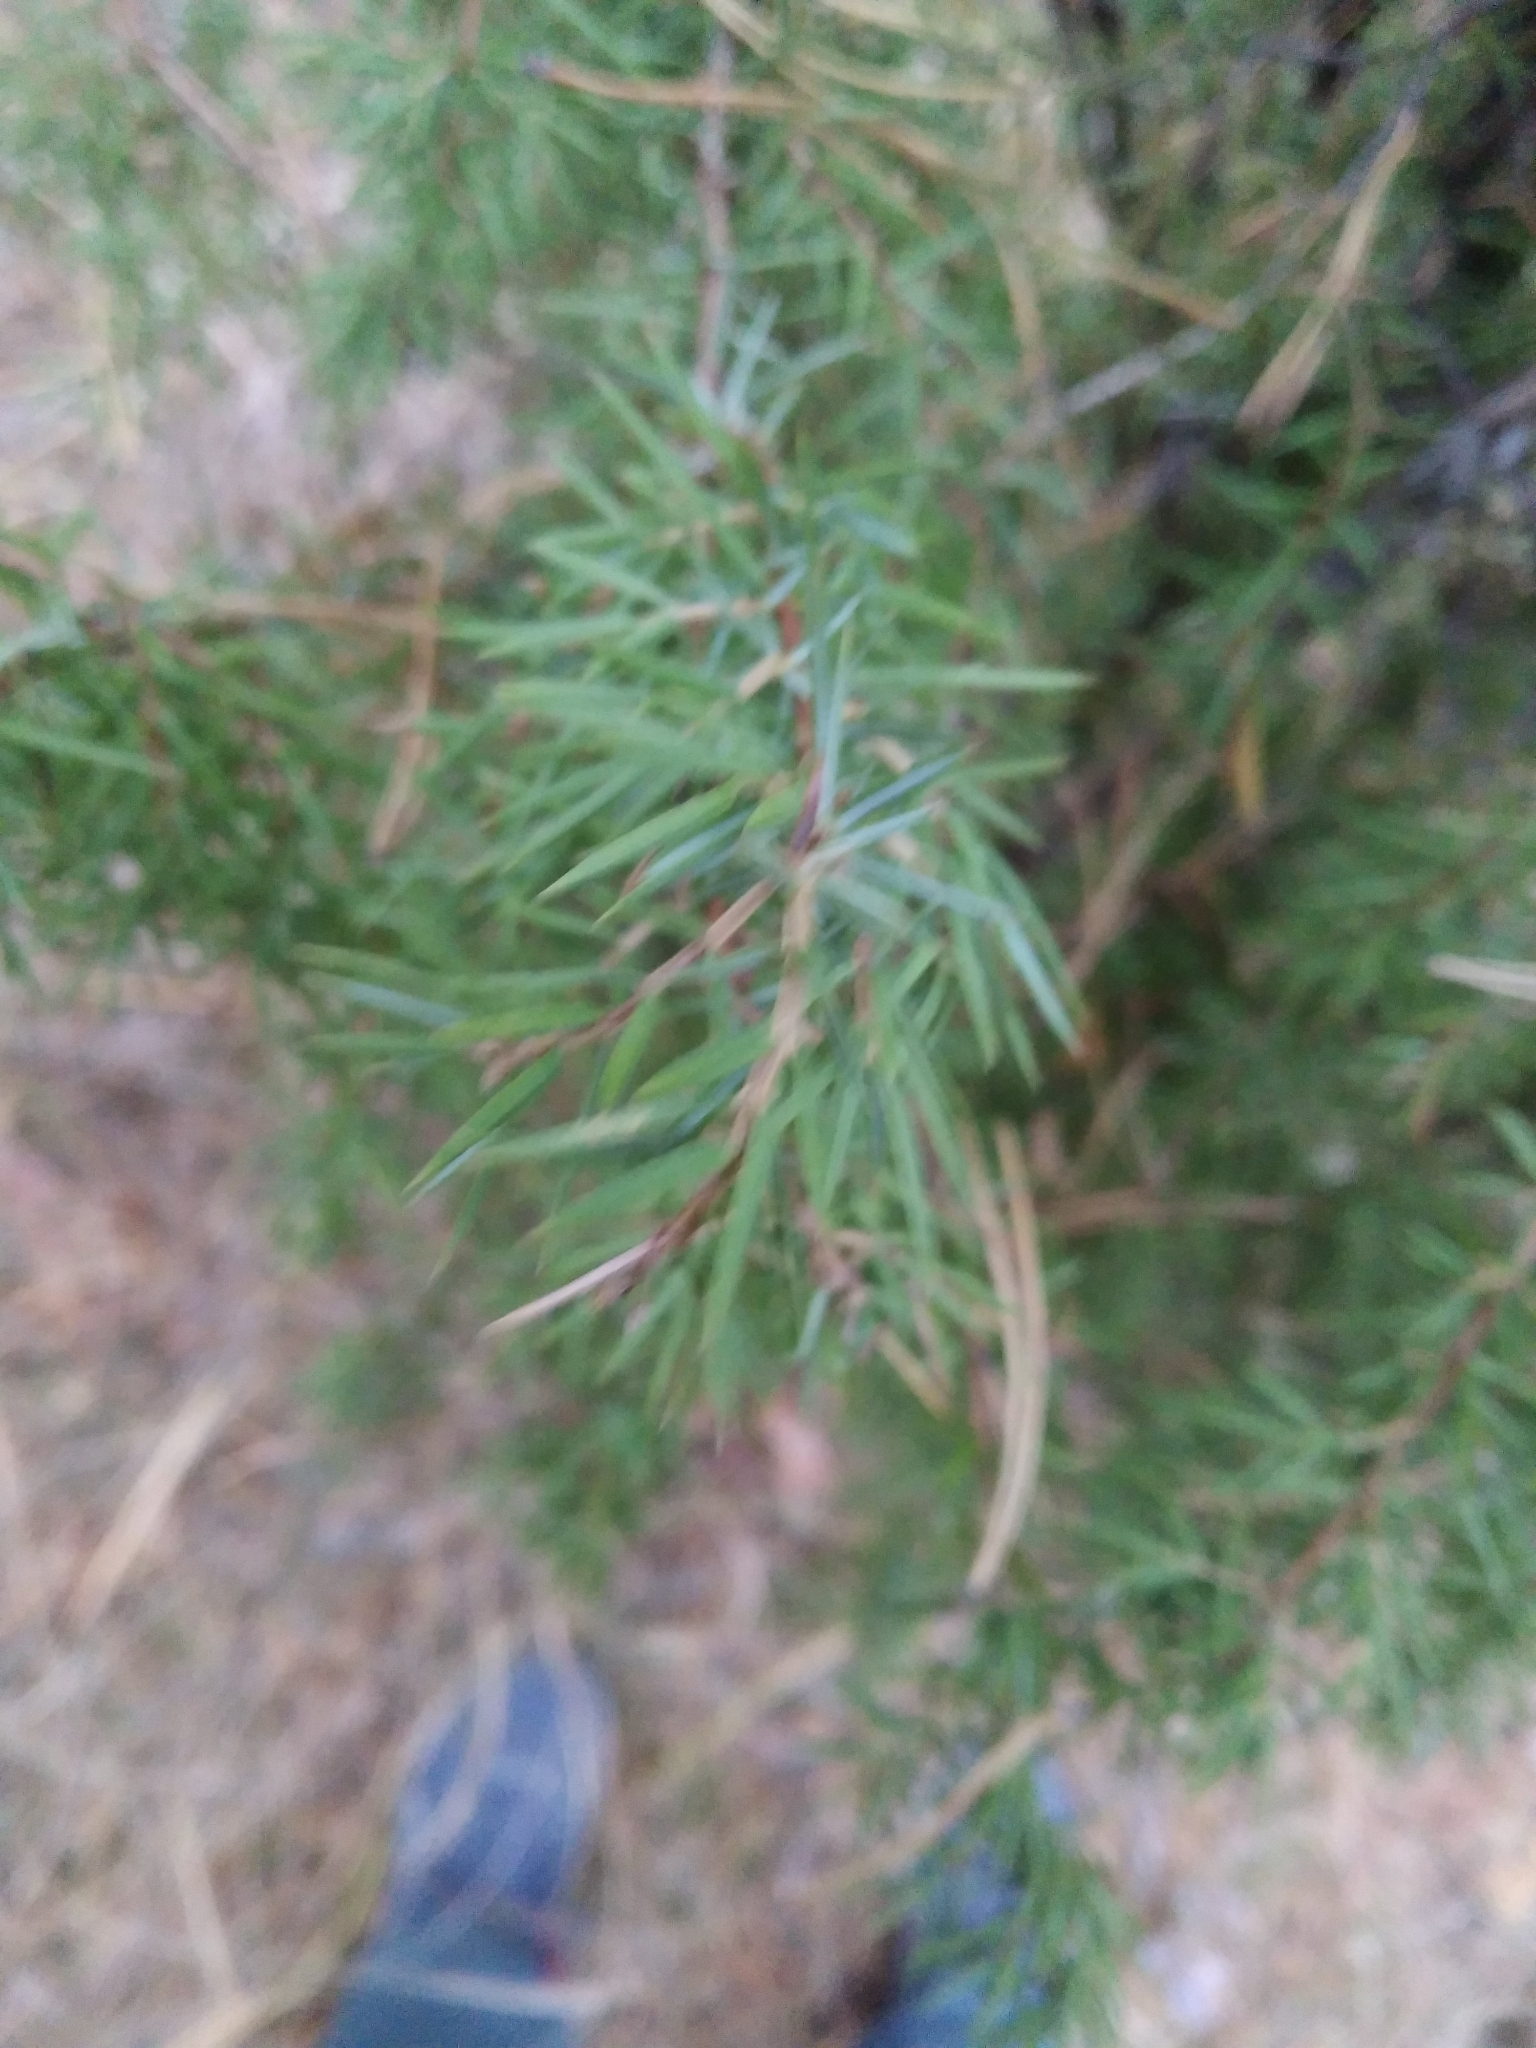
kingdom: Plantae
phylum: Tracheophyta
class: Pinopsida
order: Pinales
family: Cupressaceae
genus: Juniperus
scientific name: Juniperus communis
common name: Common juniper
